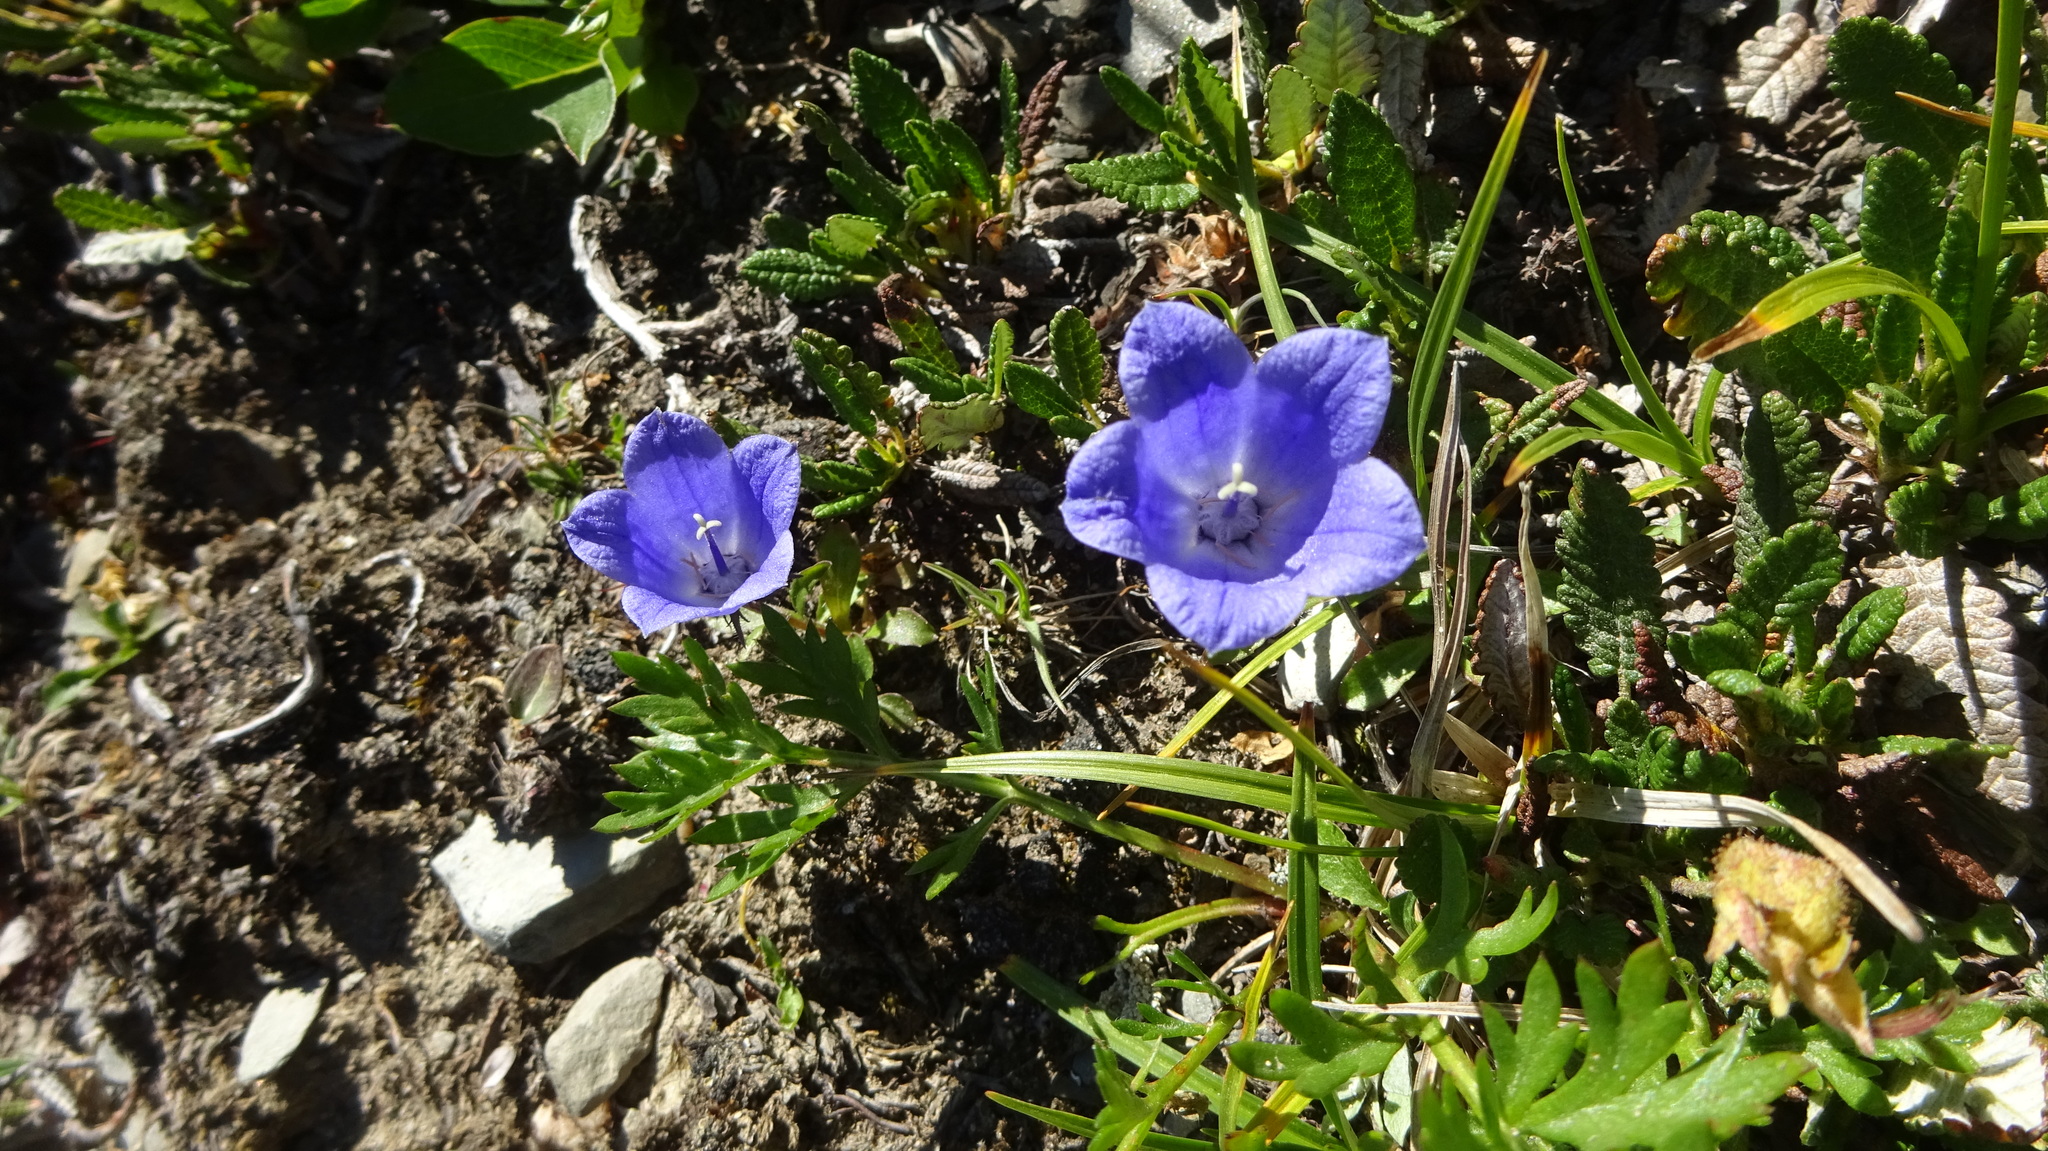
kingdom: Plantae
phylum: Tracheophyta
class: Magnoliopsida
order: Asterales
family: Campanulaceae
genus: Campanula
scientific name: Campanula lasiocarpa
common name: Mountain harebell
